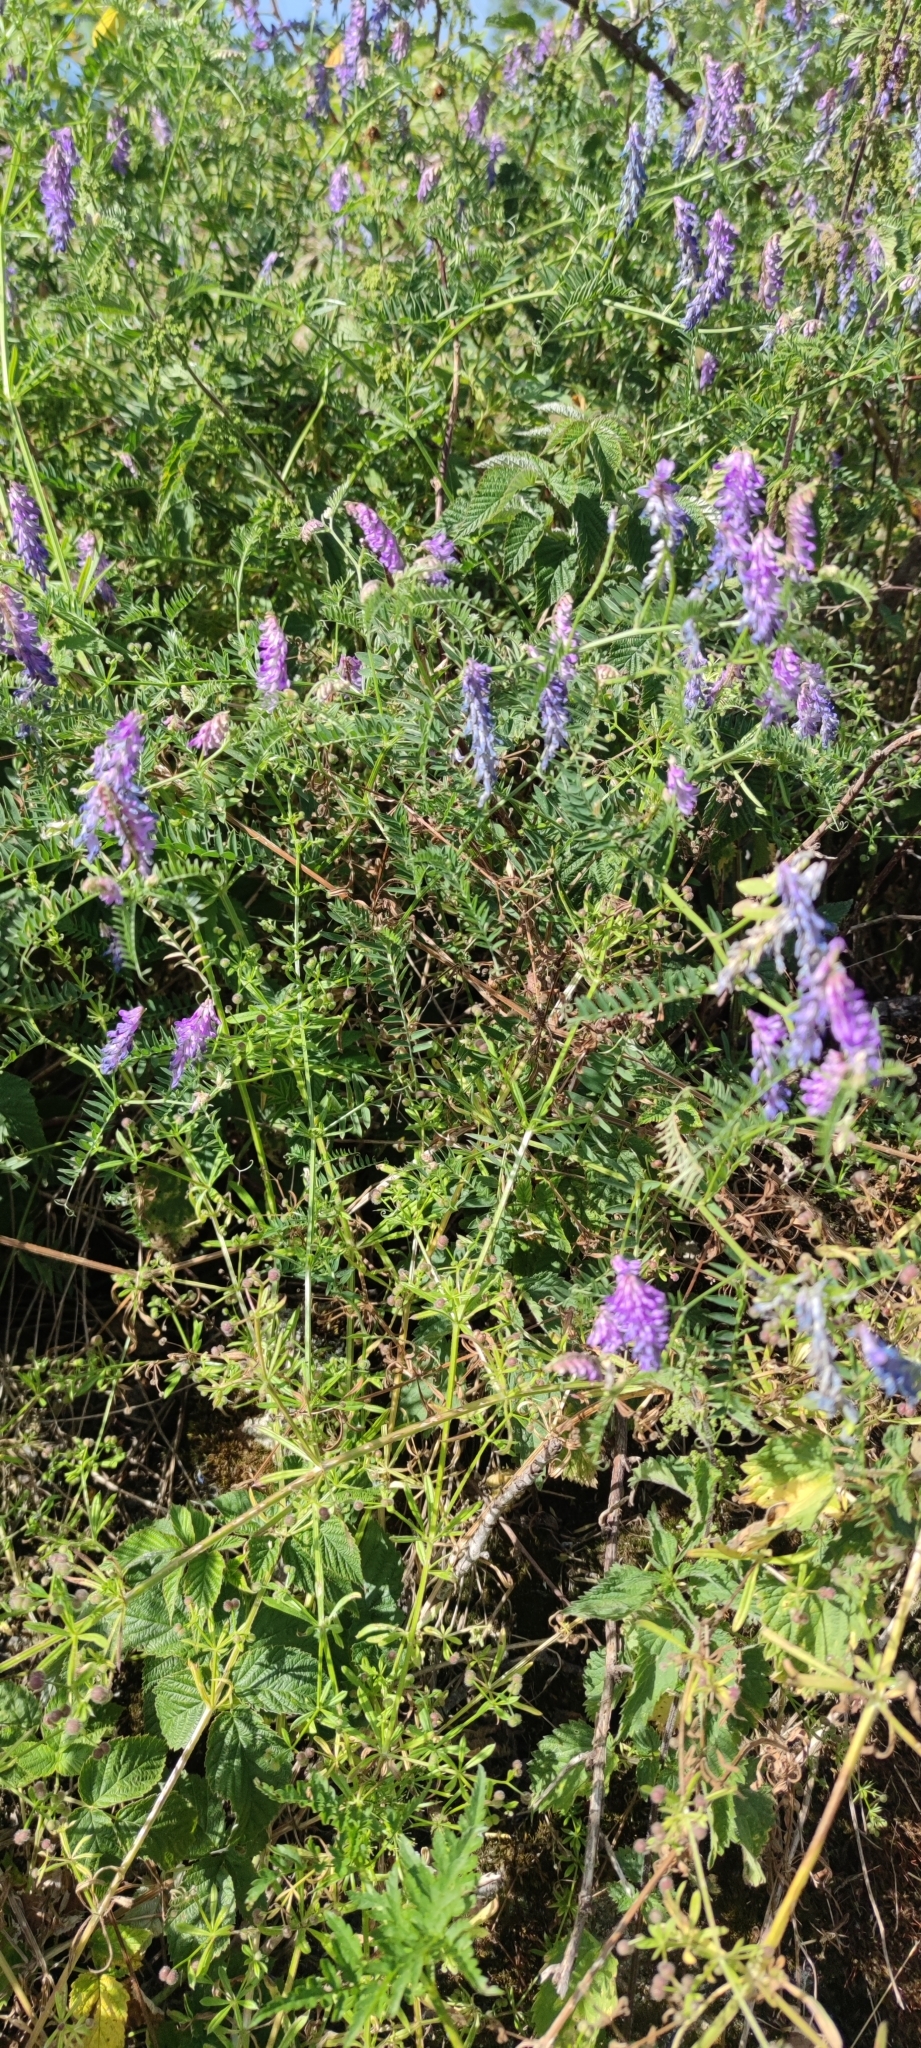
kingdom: Plantae
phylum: Tracheophyta
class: Magnoliopsida
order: Fabales
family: Fabaceae
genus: Vicia
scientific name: Vicia cracca
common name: Bird vetch
